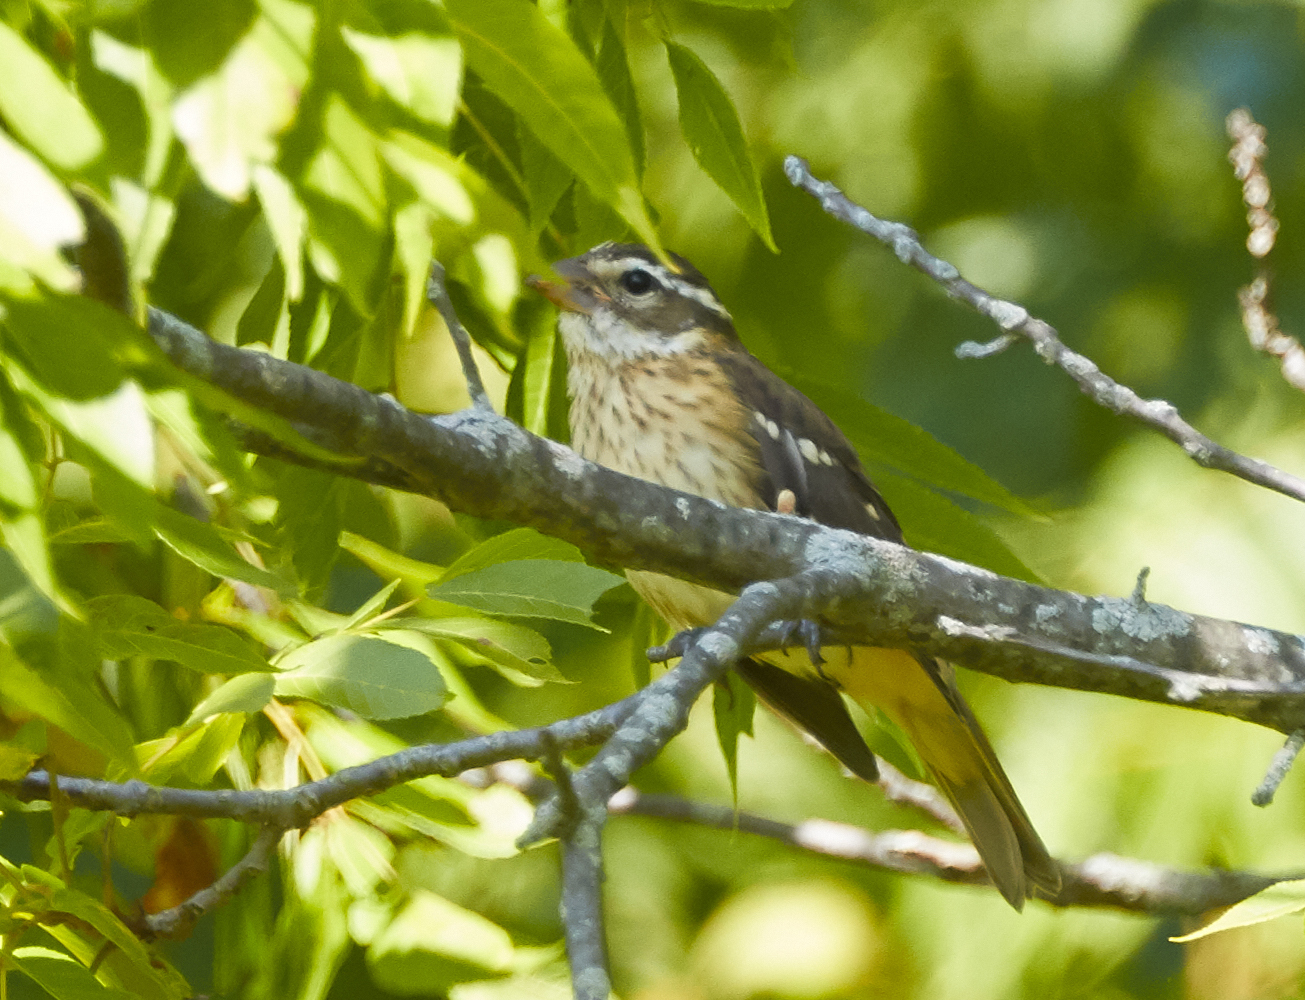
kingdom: Animalia
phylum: Chordata
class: Aves
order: Passeriformes
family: Cardinalidae
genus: Pheucticus
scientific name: Pheucticus ludovicianus
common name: Rose-breasted grosbeak
